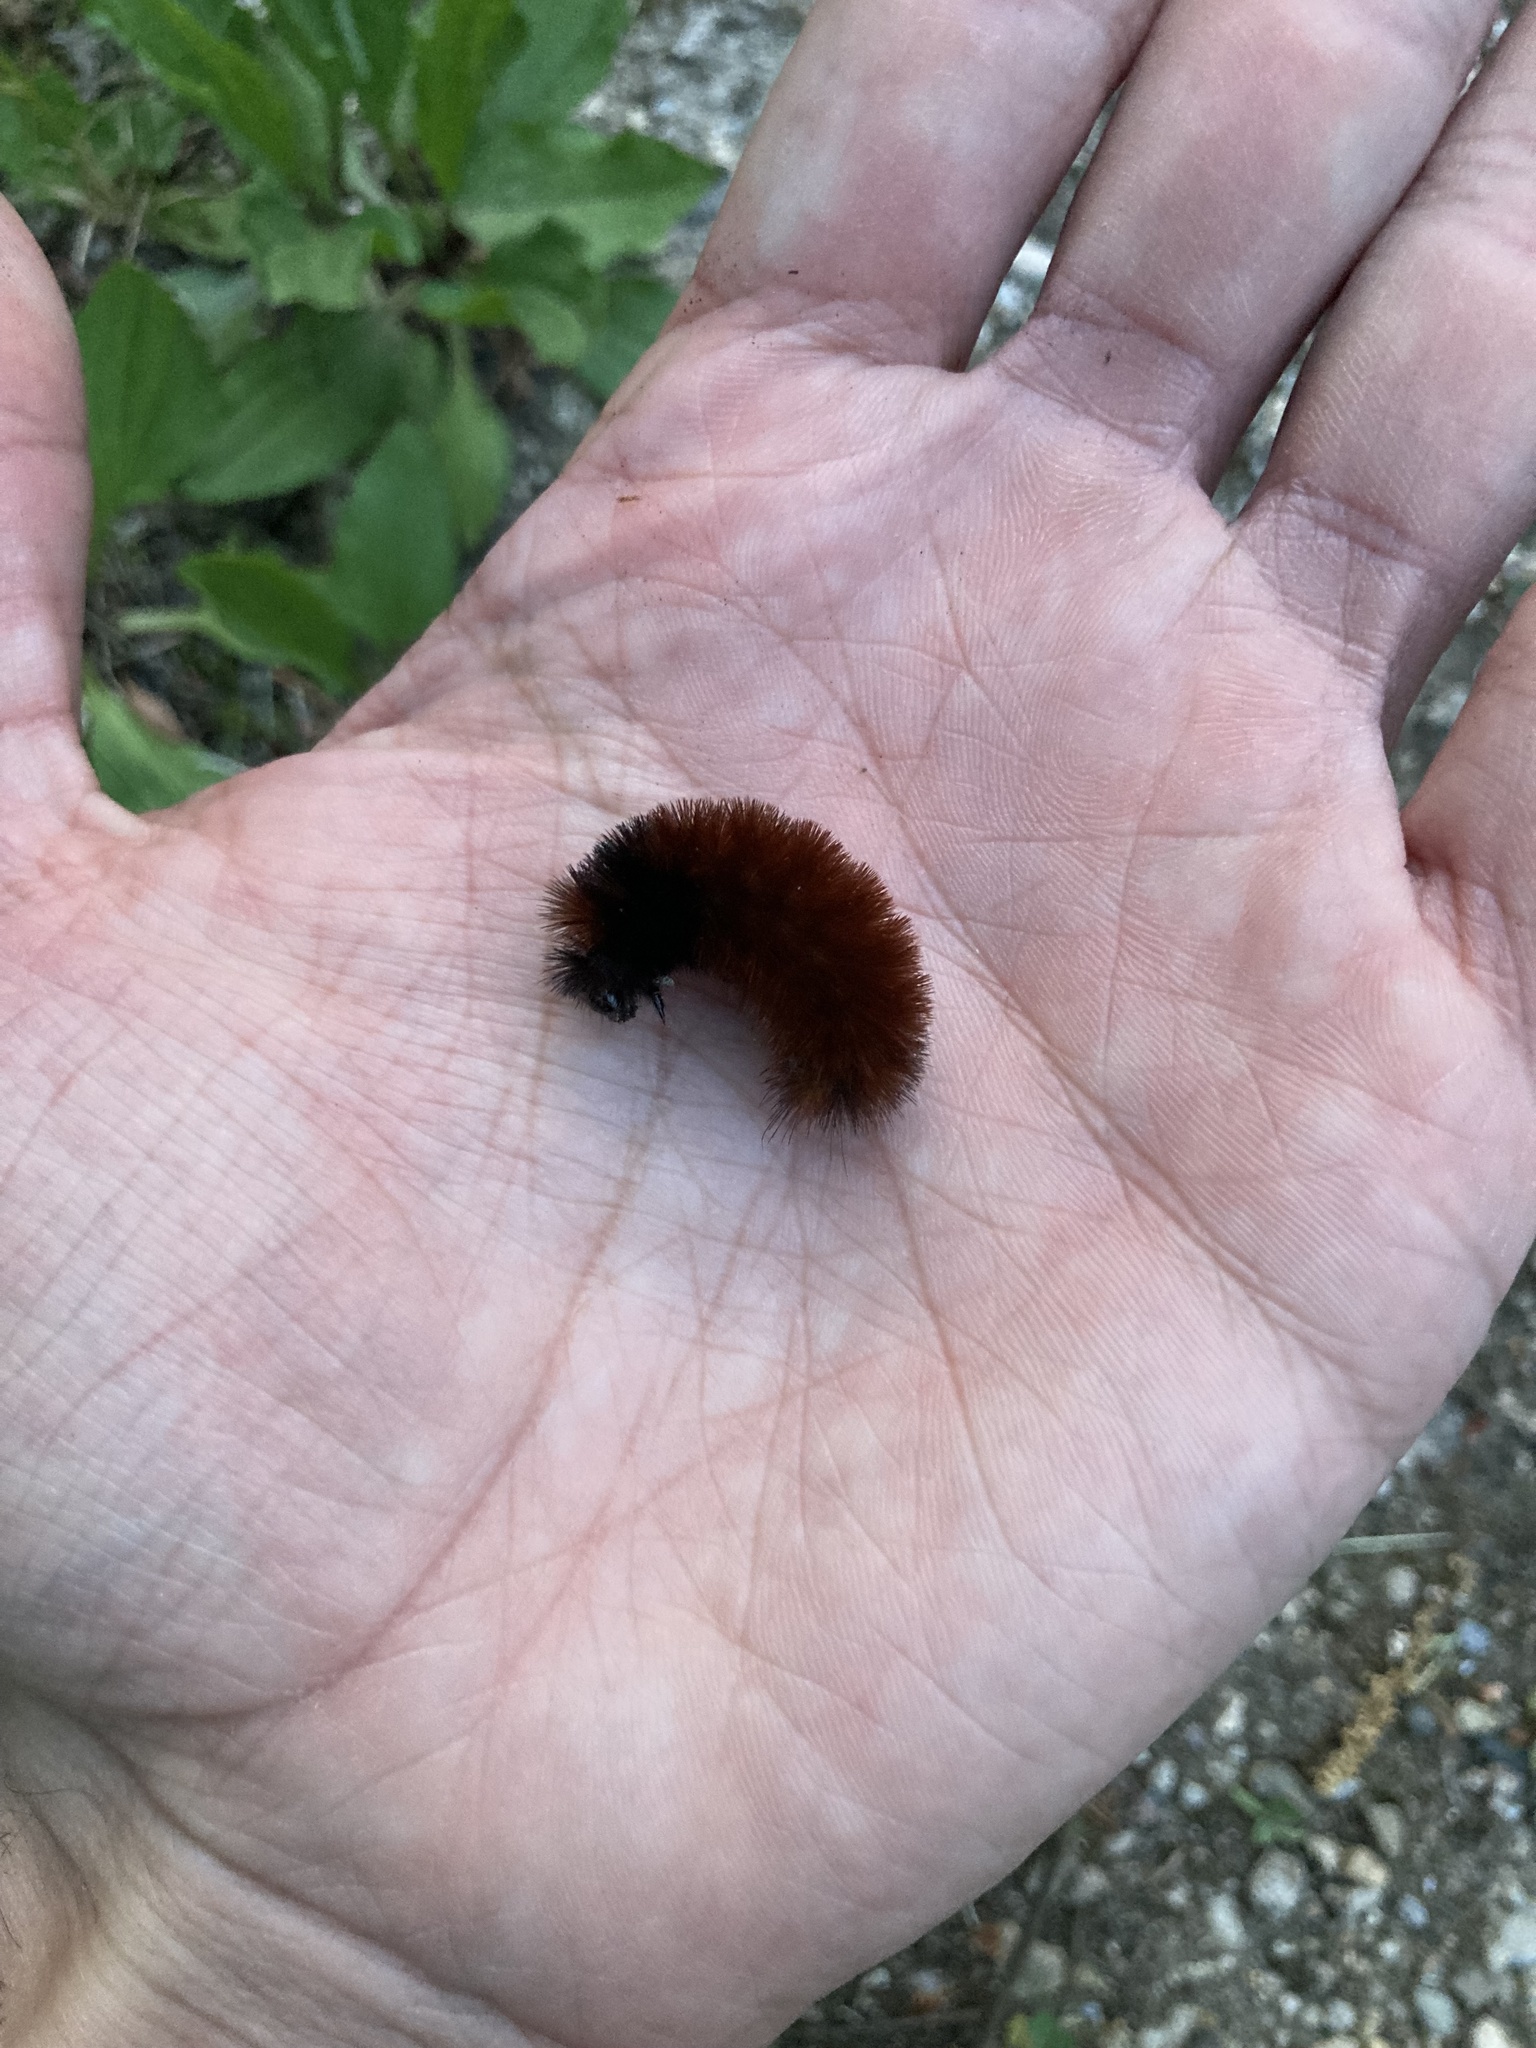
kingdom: Animalia
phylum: Arthropoda
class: Insecta
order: Lepidoptera
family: Erebidae
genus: Pyrrharctia
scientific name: Pyrrharctia isabella
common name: Isabella tiger moth
